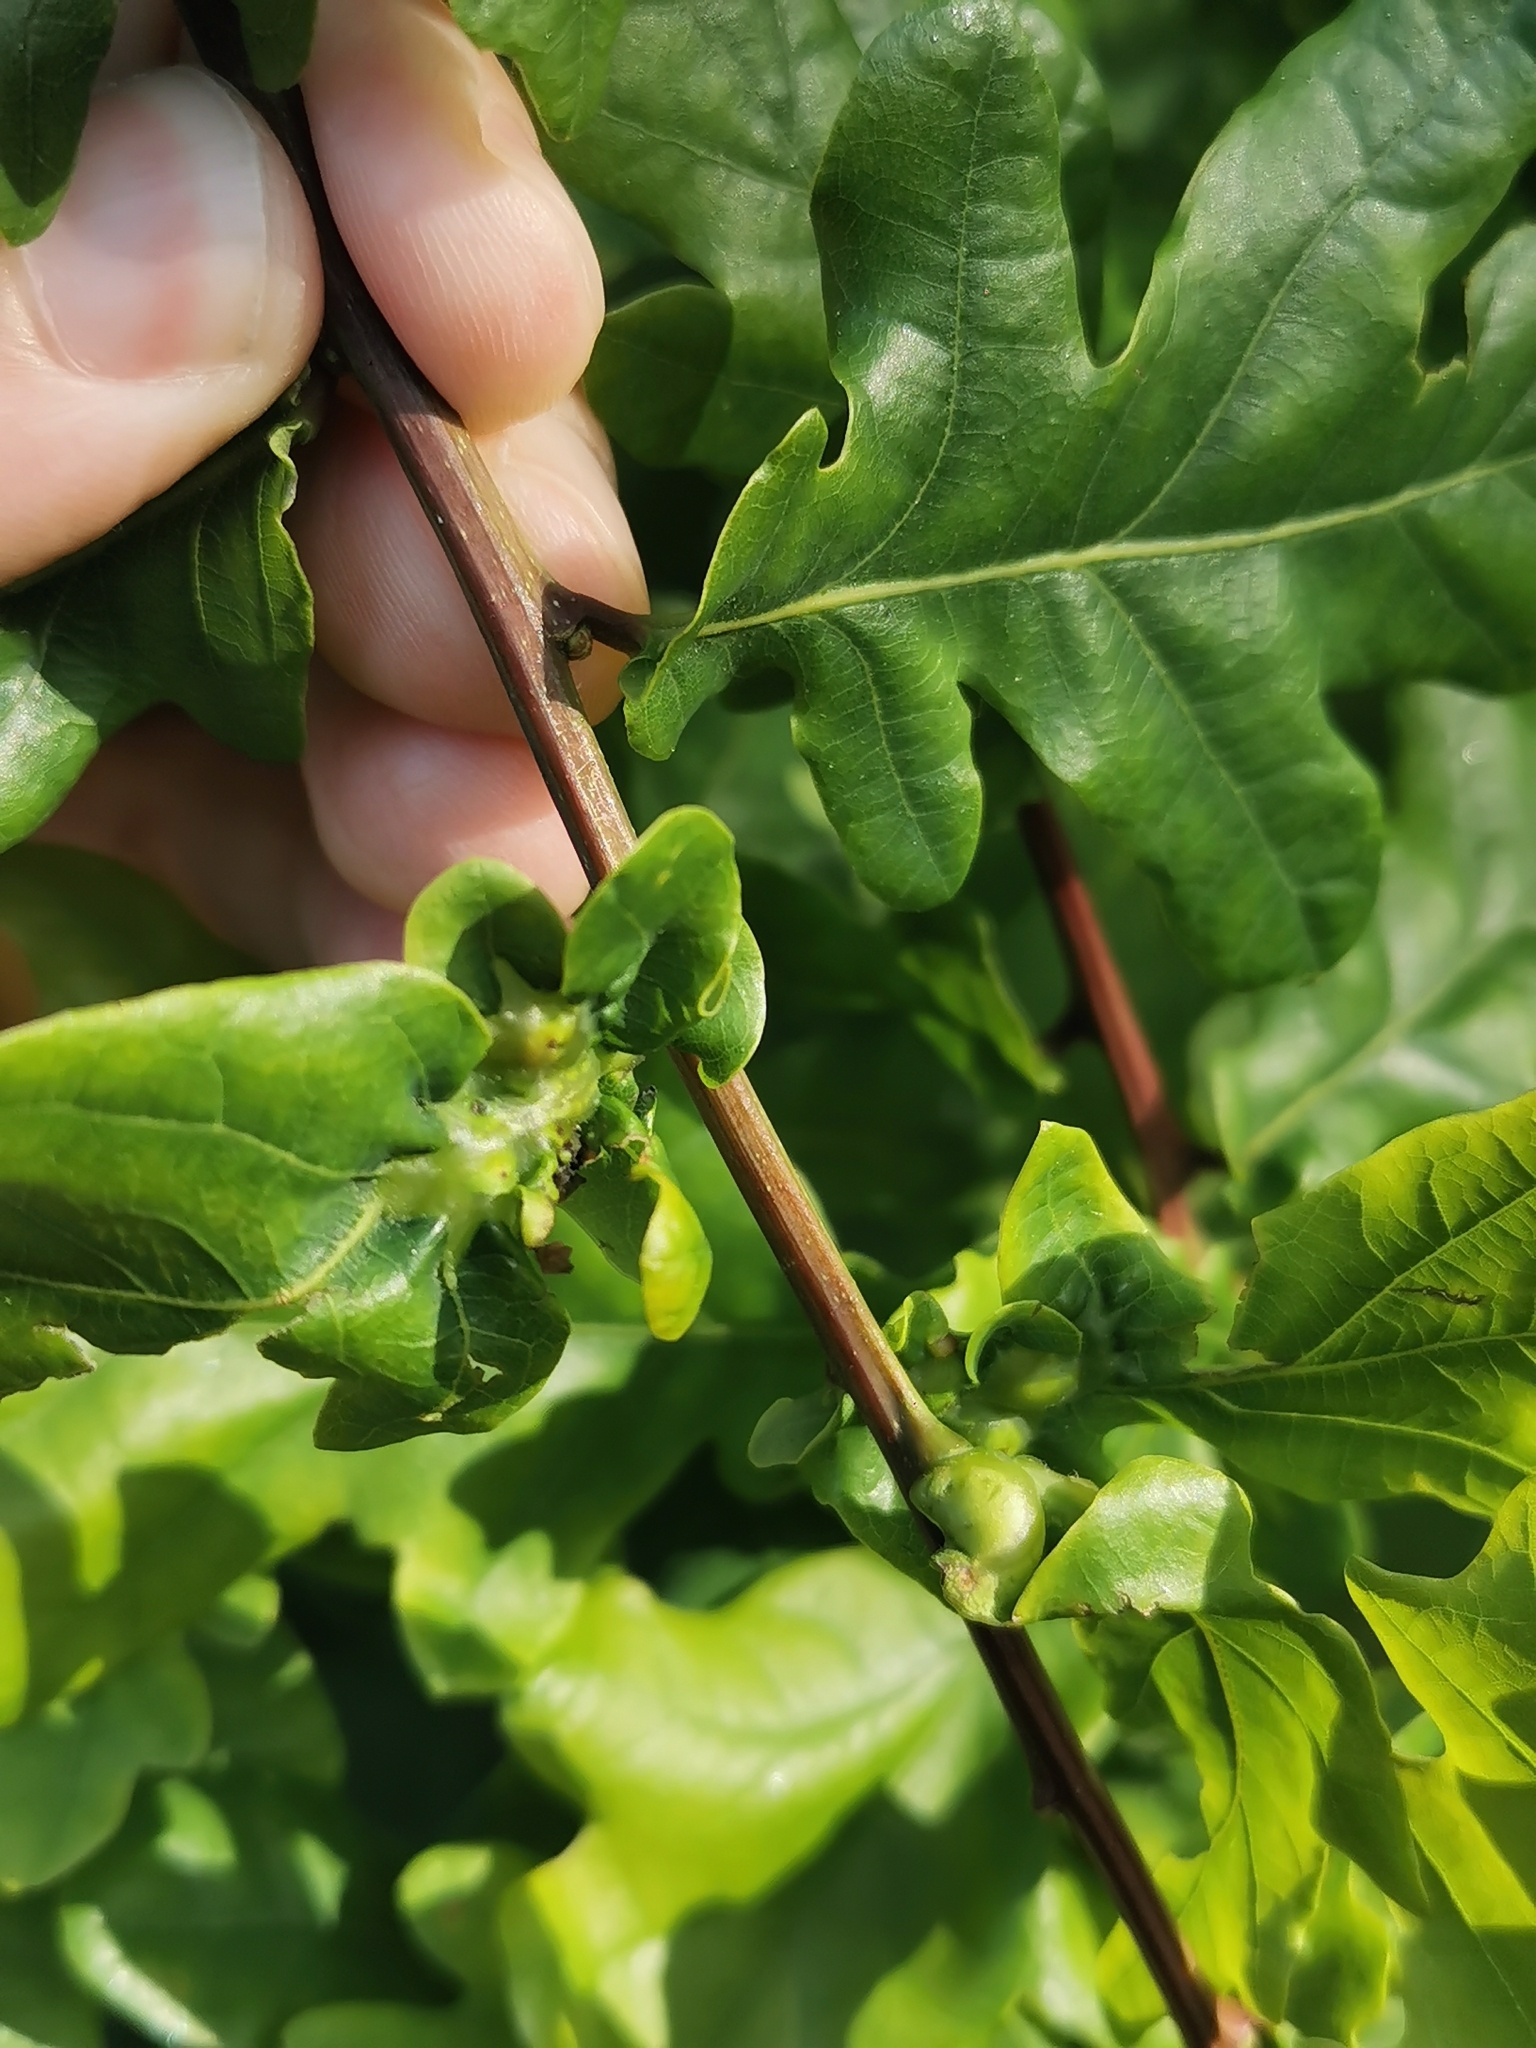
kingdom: Animalia
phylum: Arthropoda
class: Insecta
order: Hymenoptera
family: Cynipidae
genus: Andricus
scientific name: Andricus curvator
